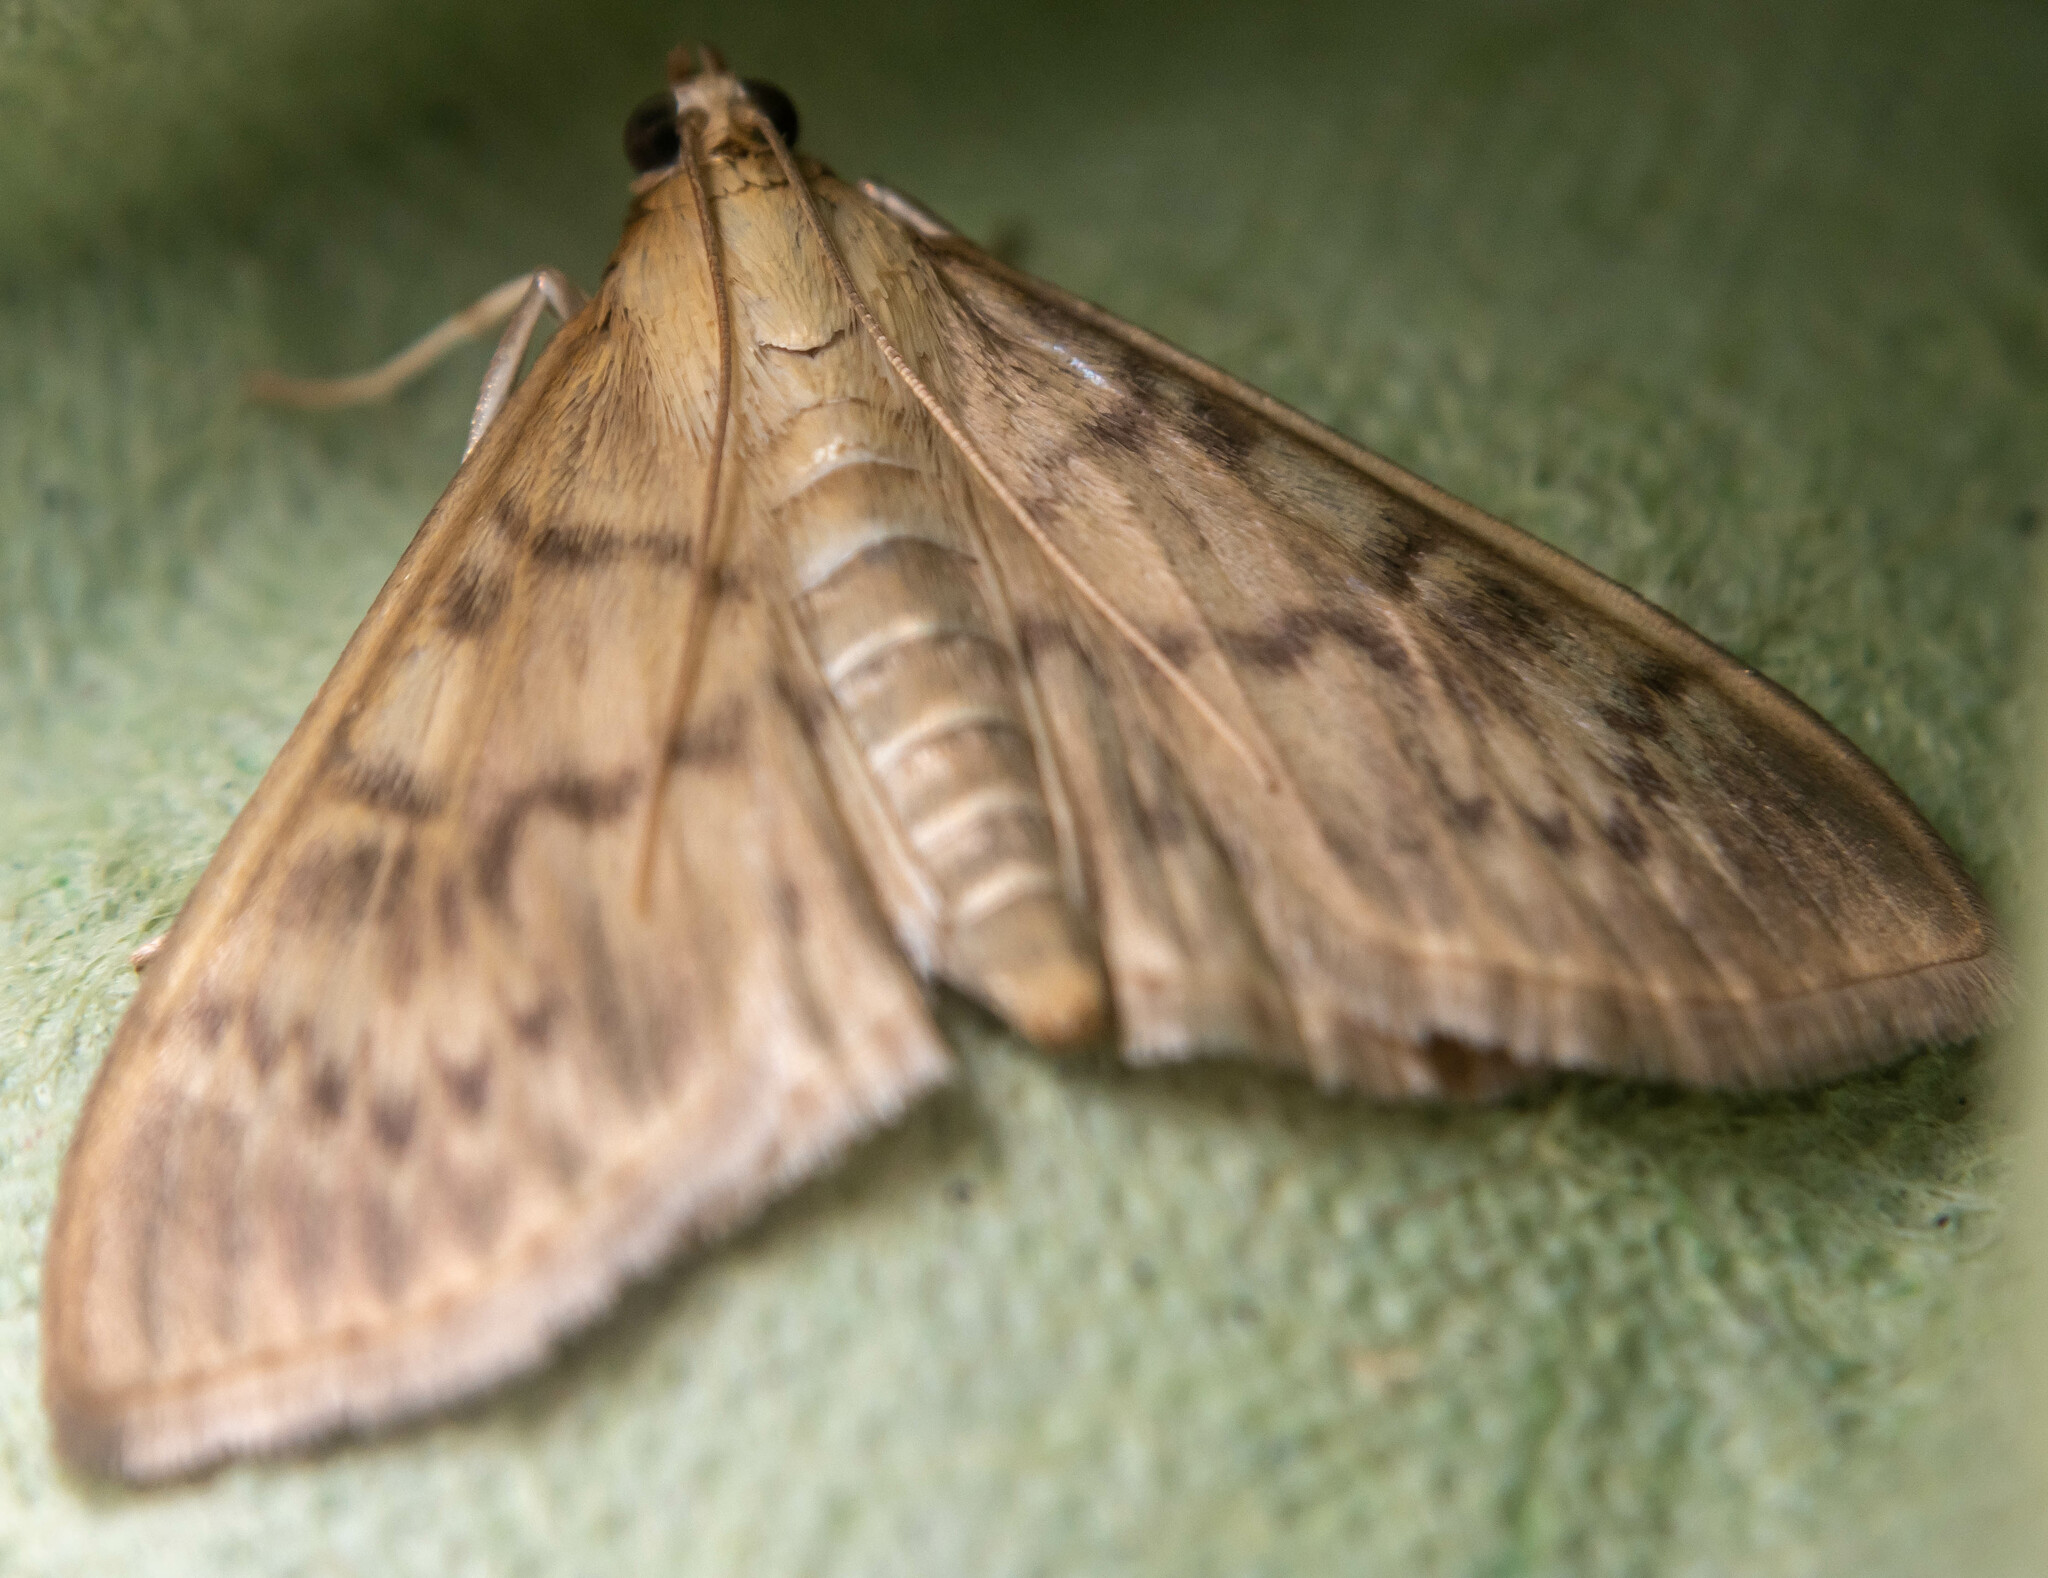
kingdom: Animalia
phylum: Arthropoda
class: Insecta
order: Lepidoptera
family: Crambidae
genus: Patania
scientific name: Patania ruralis
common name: Mother of pearl
